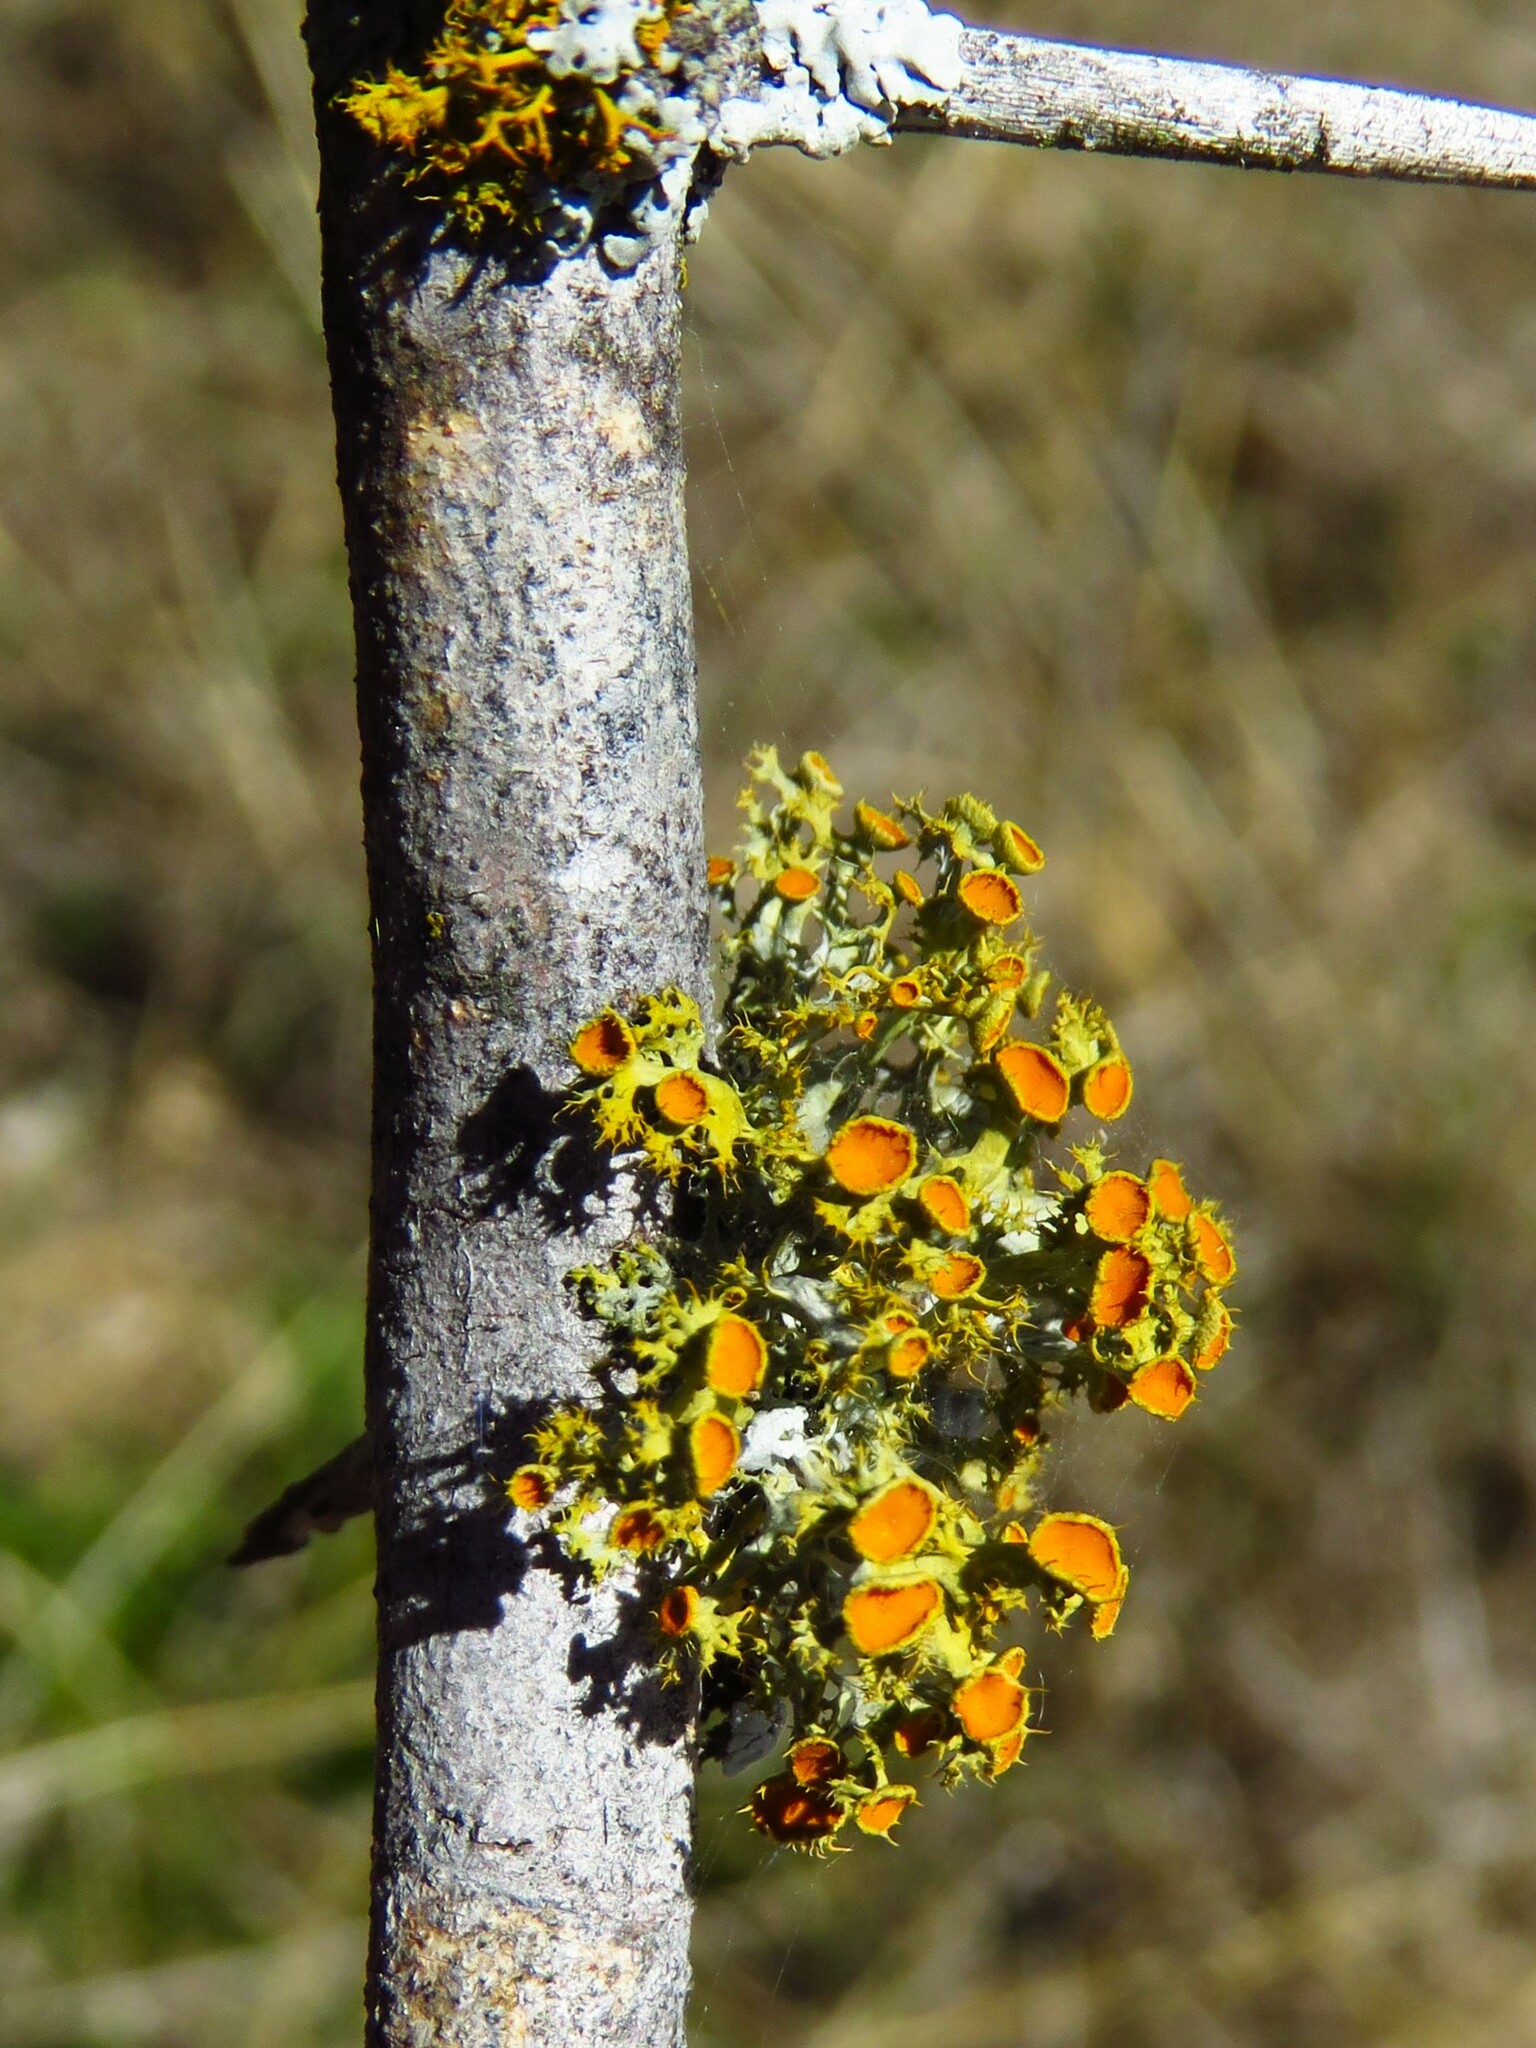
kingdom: Fungi
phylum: Ascomycota
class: Lecanoromycetes
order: Teloschistales
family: Teloschistaceae
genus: Niorma
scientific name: Niorma chrysophthalma
